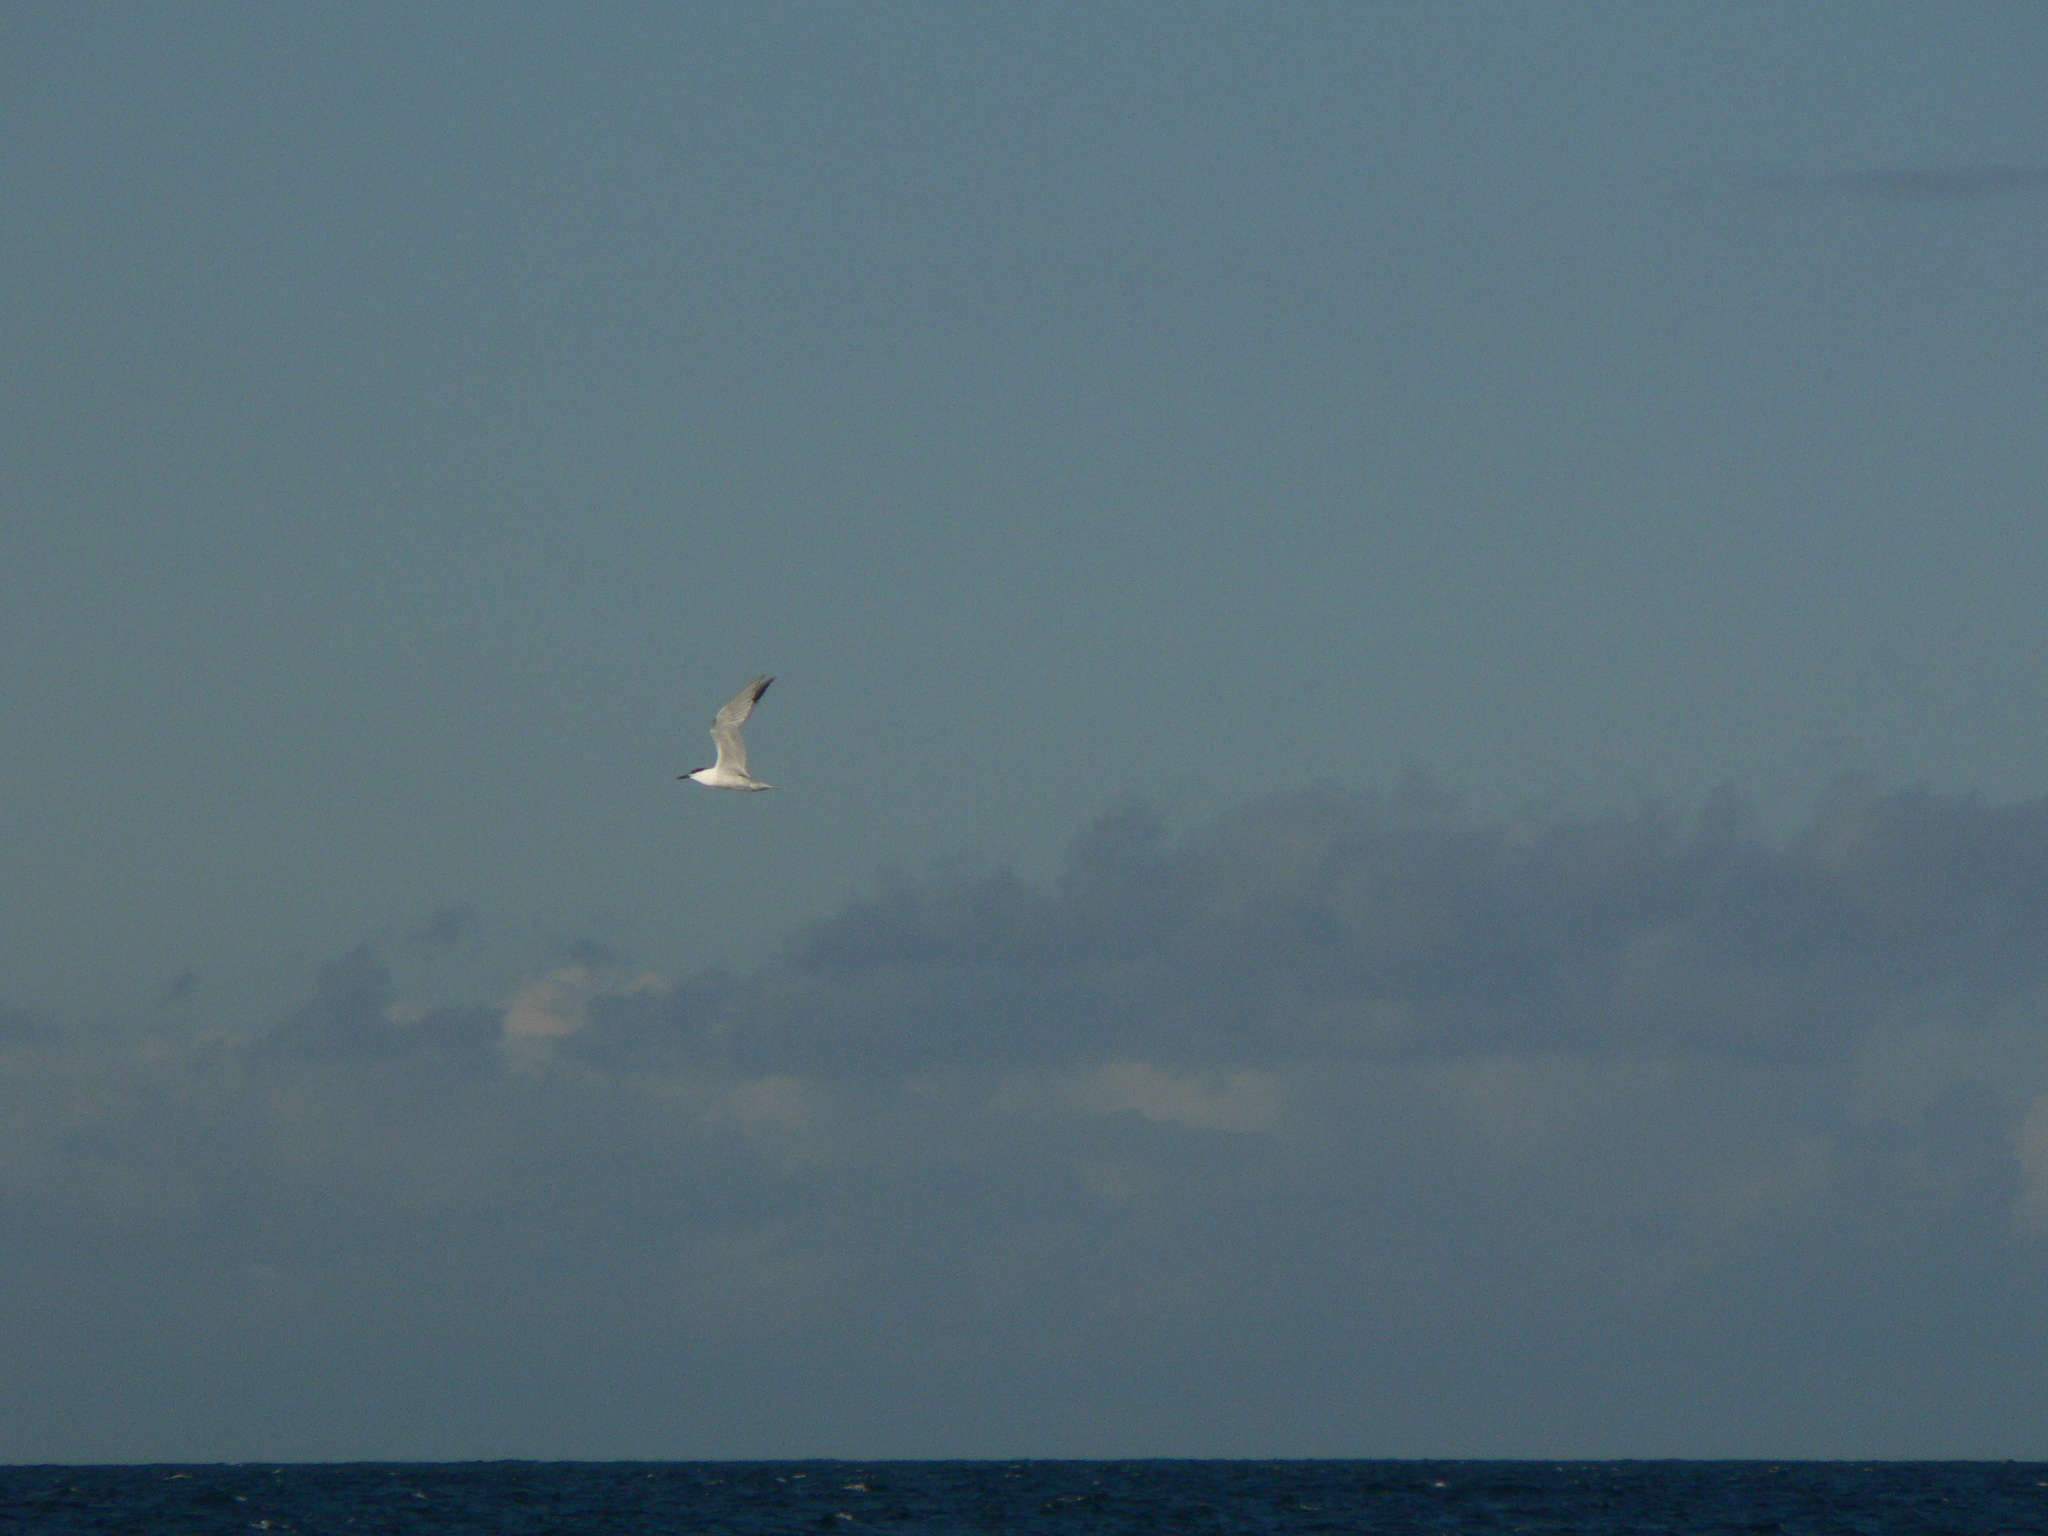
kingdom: Animalia
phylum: Chordata
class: Aves
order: Charadriiformes
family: Laridae
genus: Thalasseus
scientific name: Thalasseus sandvicensis
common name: Sandwich tern
